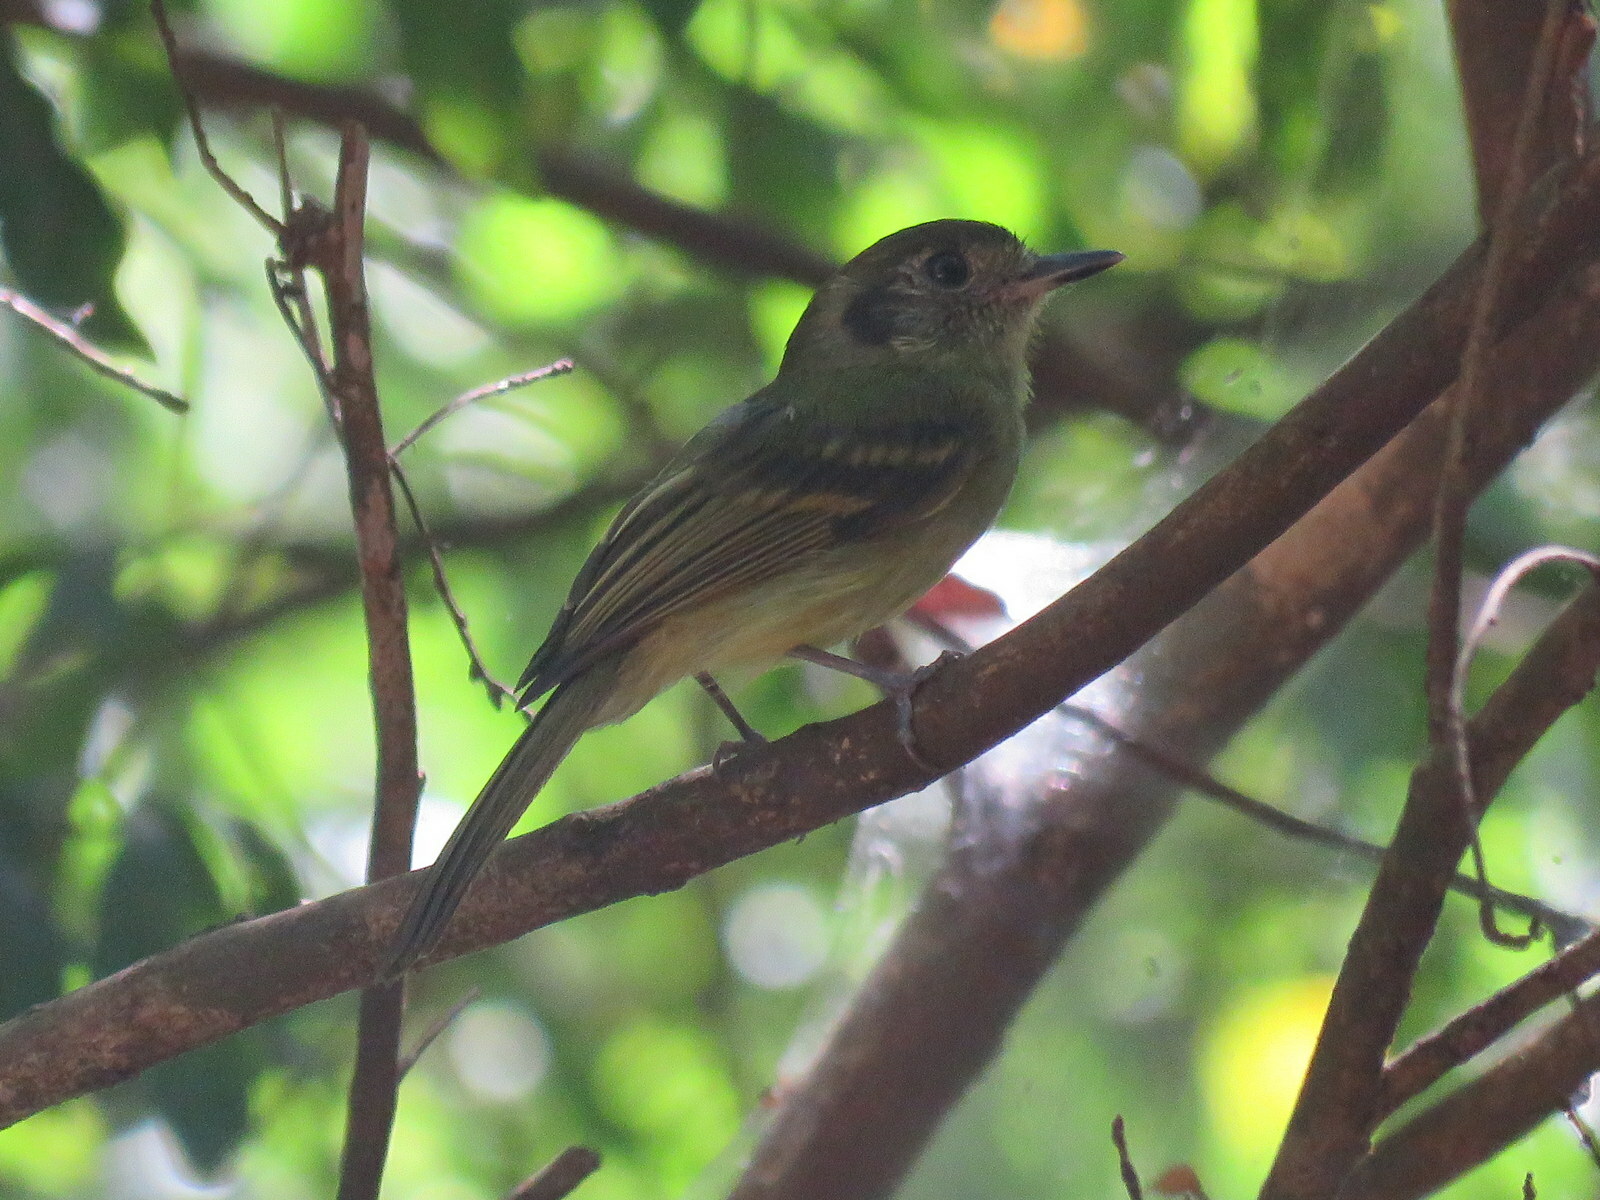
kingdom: Animalia
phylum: Chordata
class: Aves
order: Passeriformes
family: Tyrannidae
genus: Leptopogon
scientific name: Leptopogon amaurocephalus
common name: Sepia-capped flycatcher
